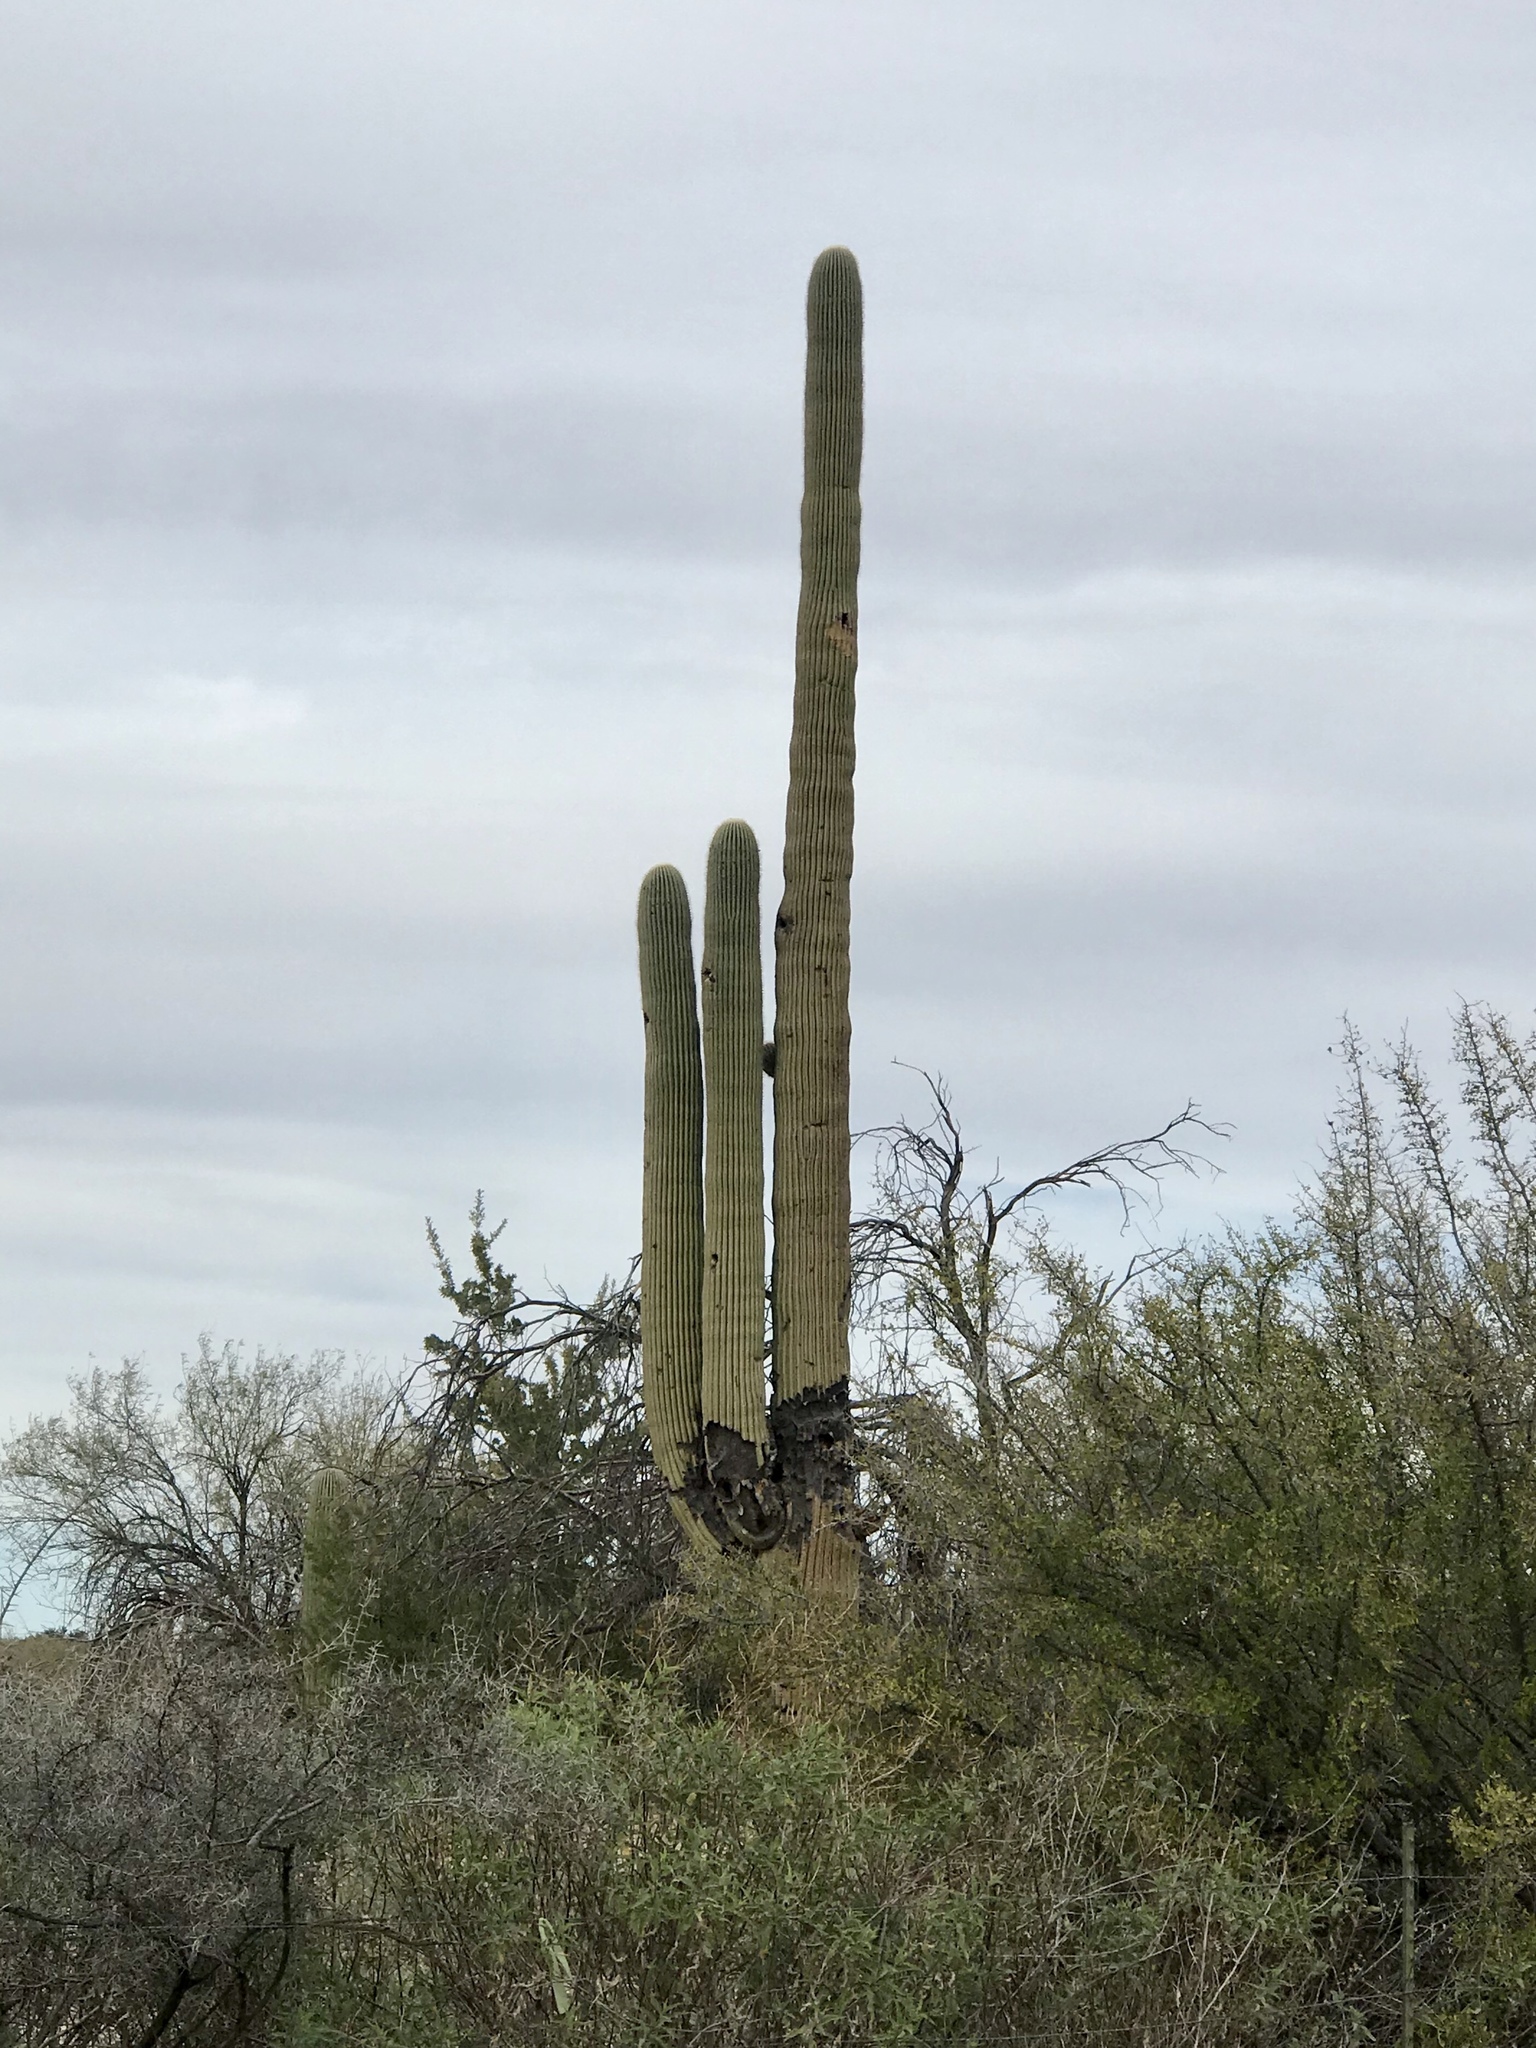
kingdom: Plantae
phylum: Tracheophyta
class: Magnoliopsida
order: Caryophyllales
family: Cactaceae
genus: Carnegiea
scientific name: Carnegiea gigantea
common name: Saguaro
